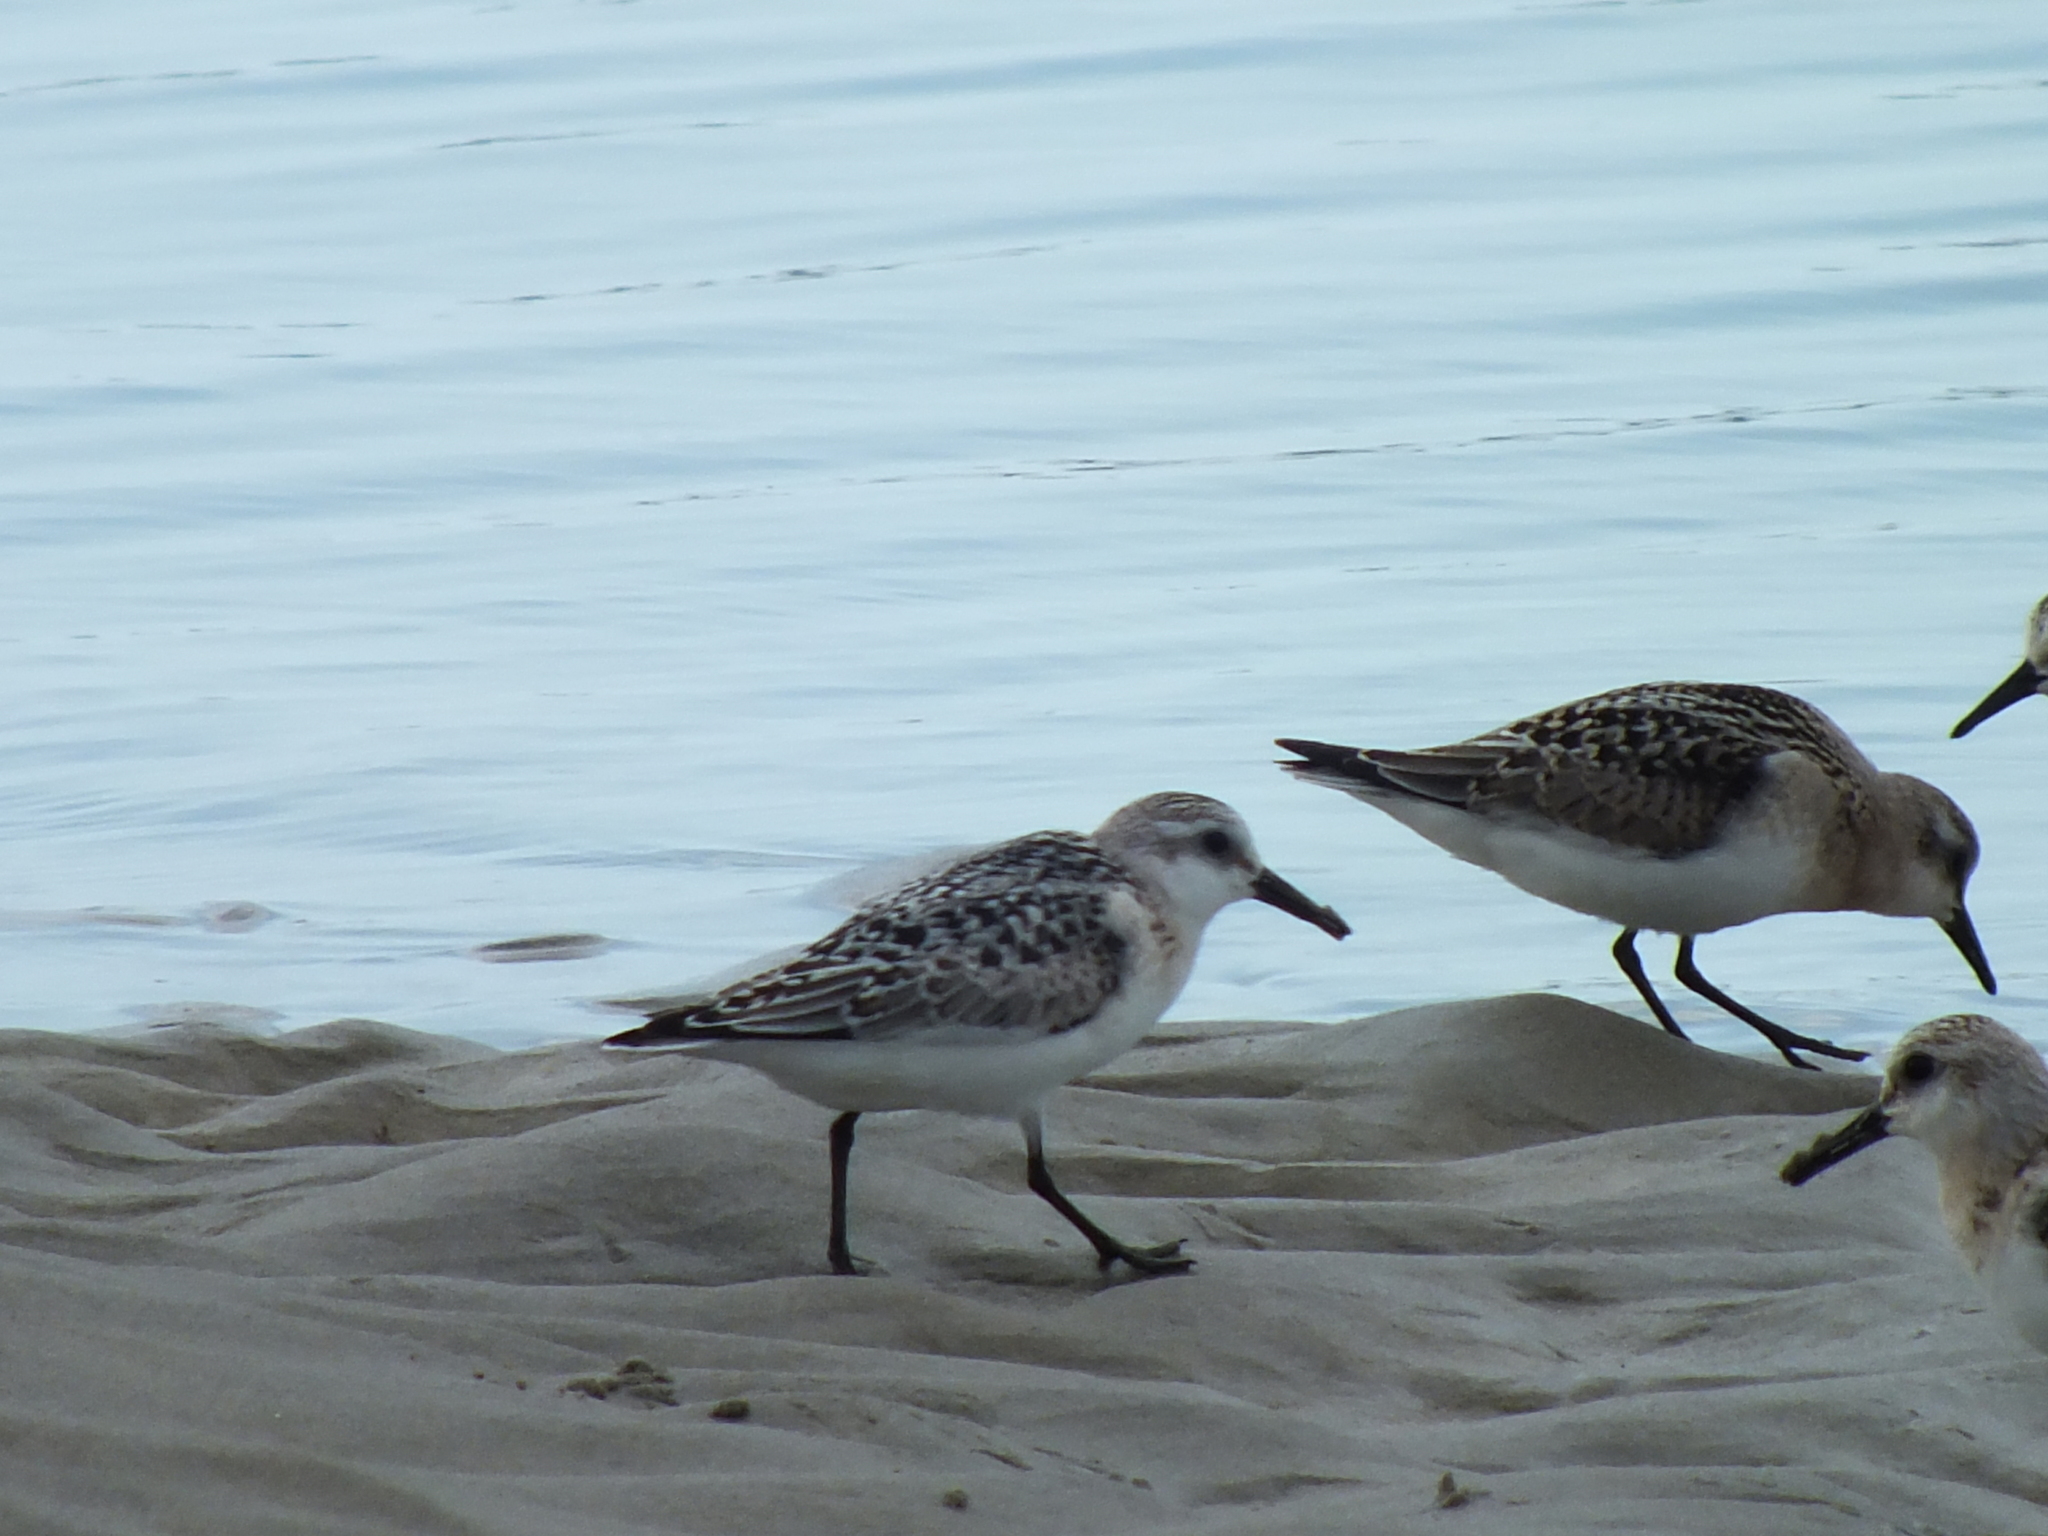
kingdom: Animalia
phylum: Chordata
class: Aves
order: Charadriiformes
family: Scolopacidae
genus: Calidris
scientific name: Calidris alba
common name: Sanderling
